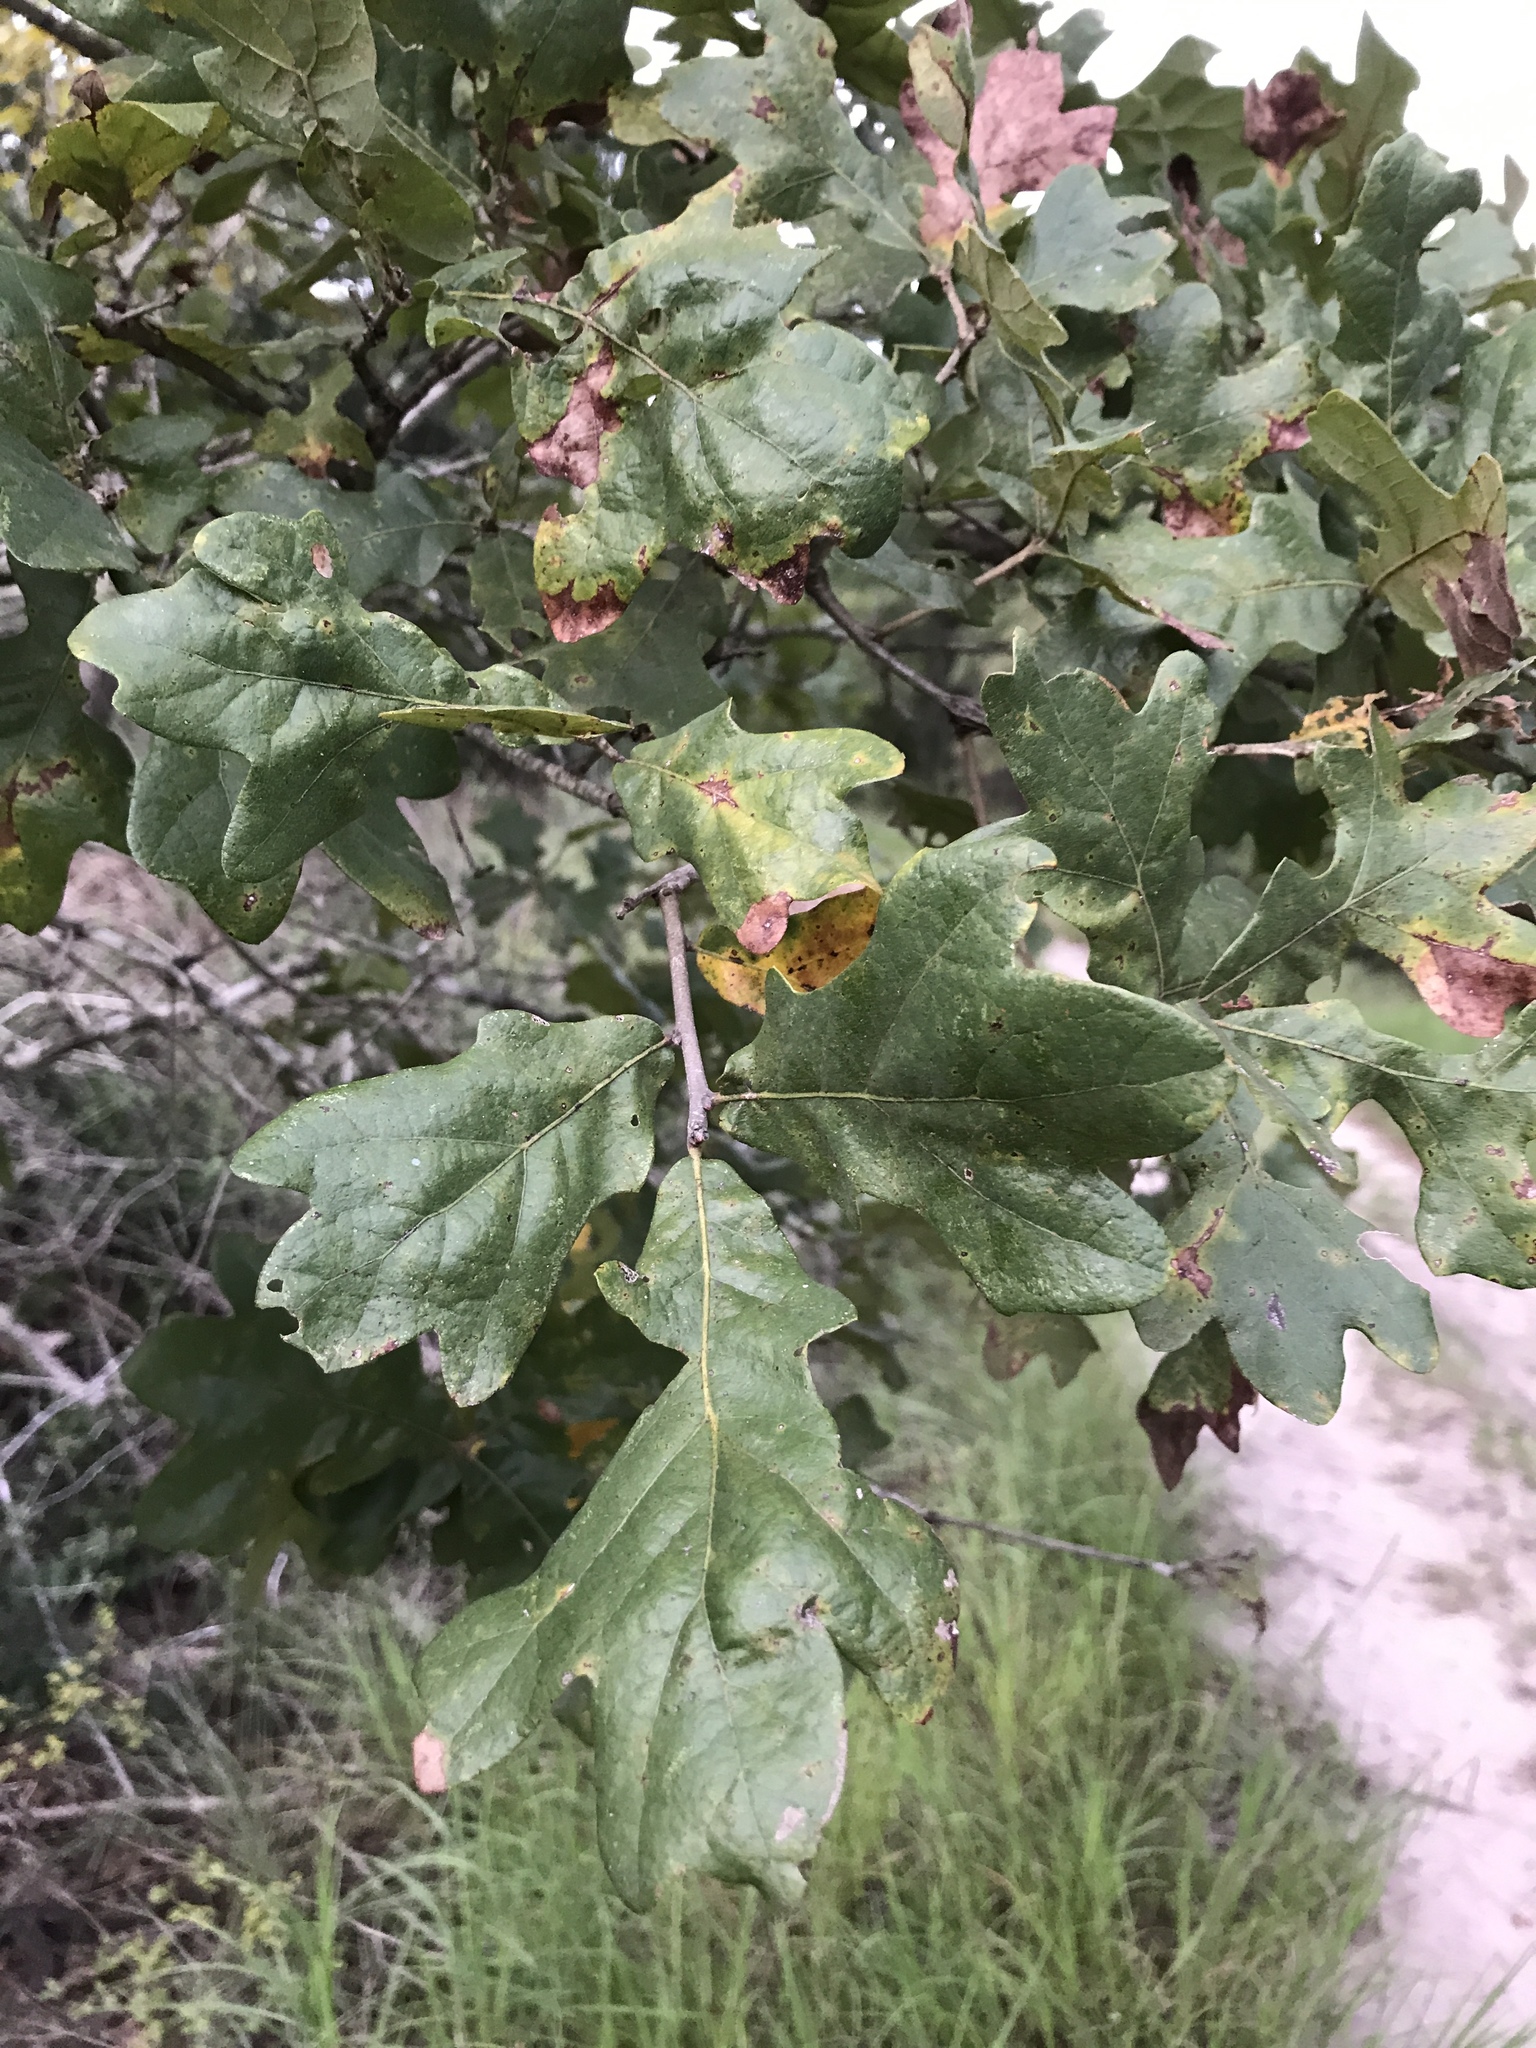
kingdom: Plantae
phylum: Tracheophyta
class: Magnoliopsida
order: Fagales
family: Fagaceae
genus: Quercus
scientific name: Quercus stellata
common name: Post oak
